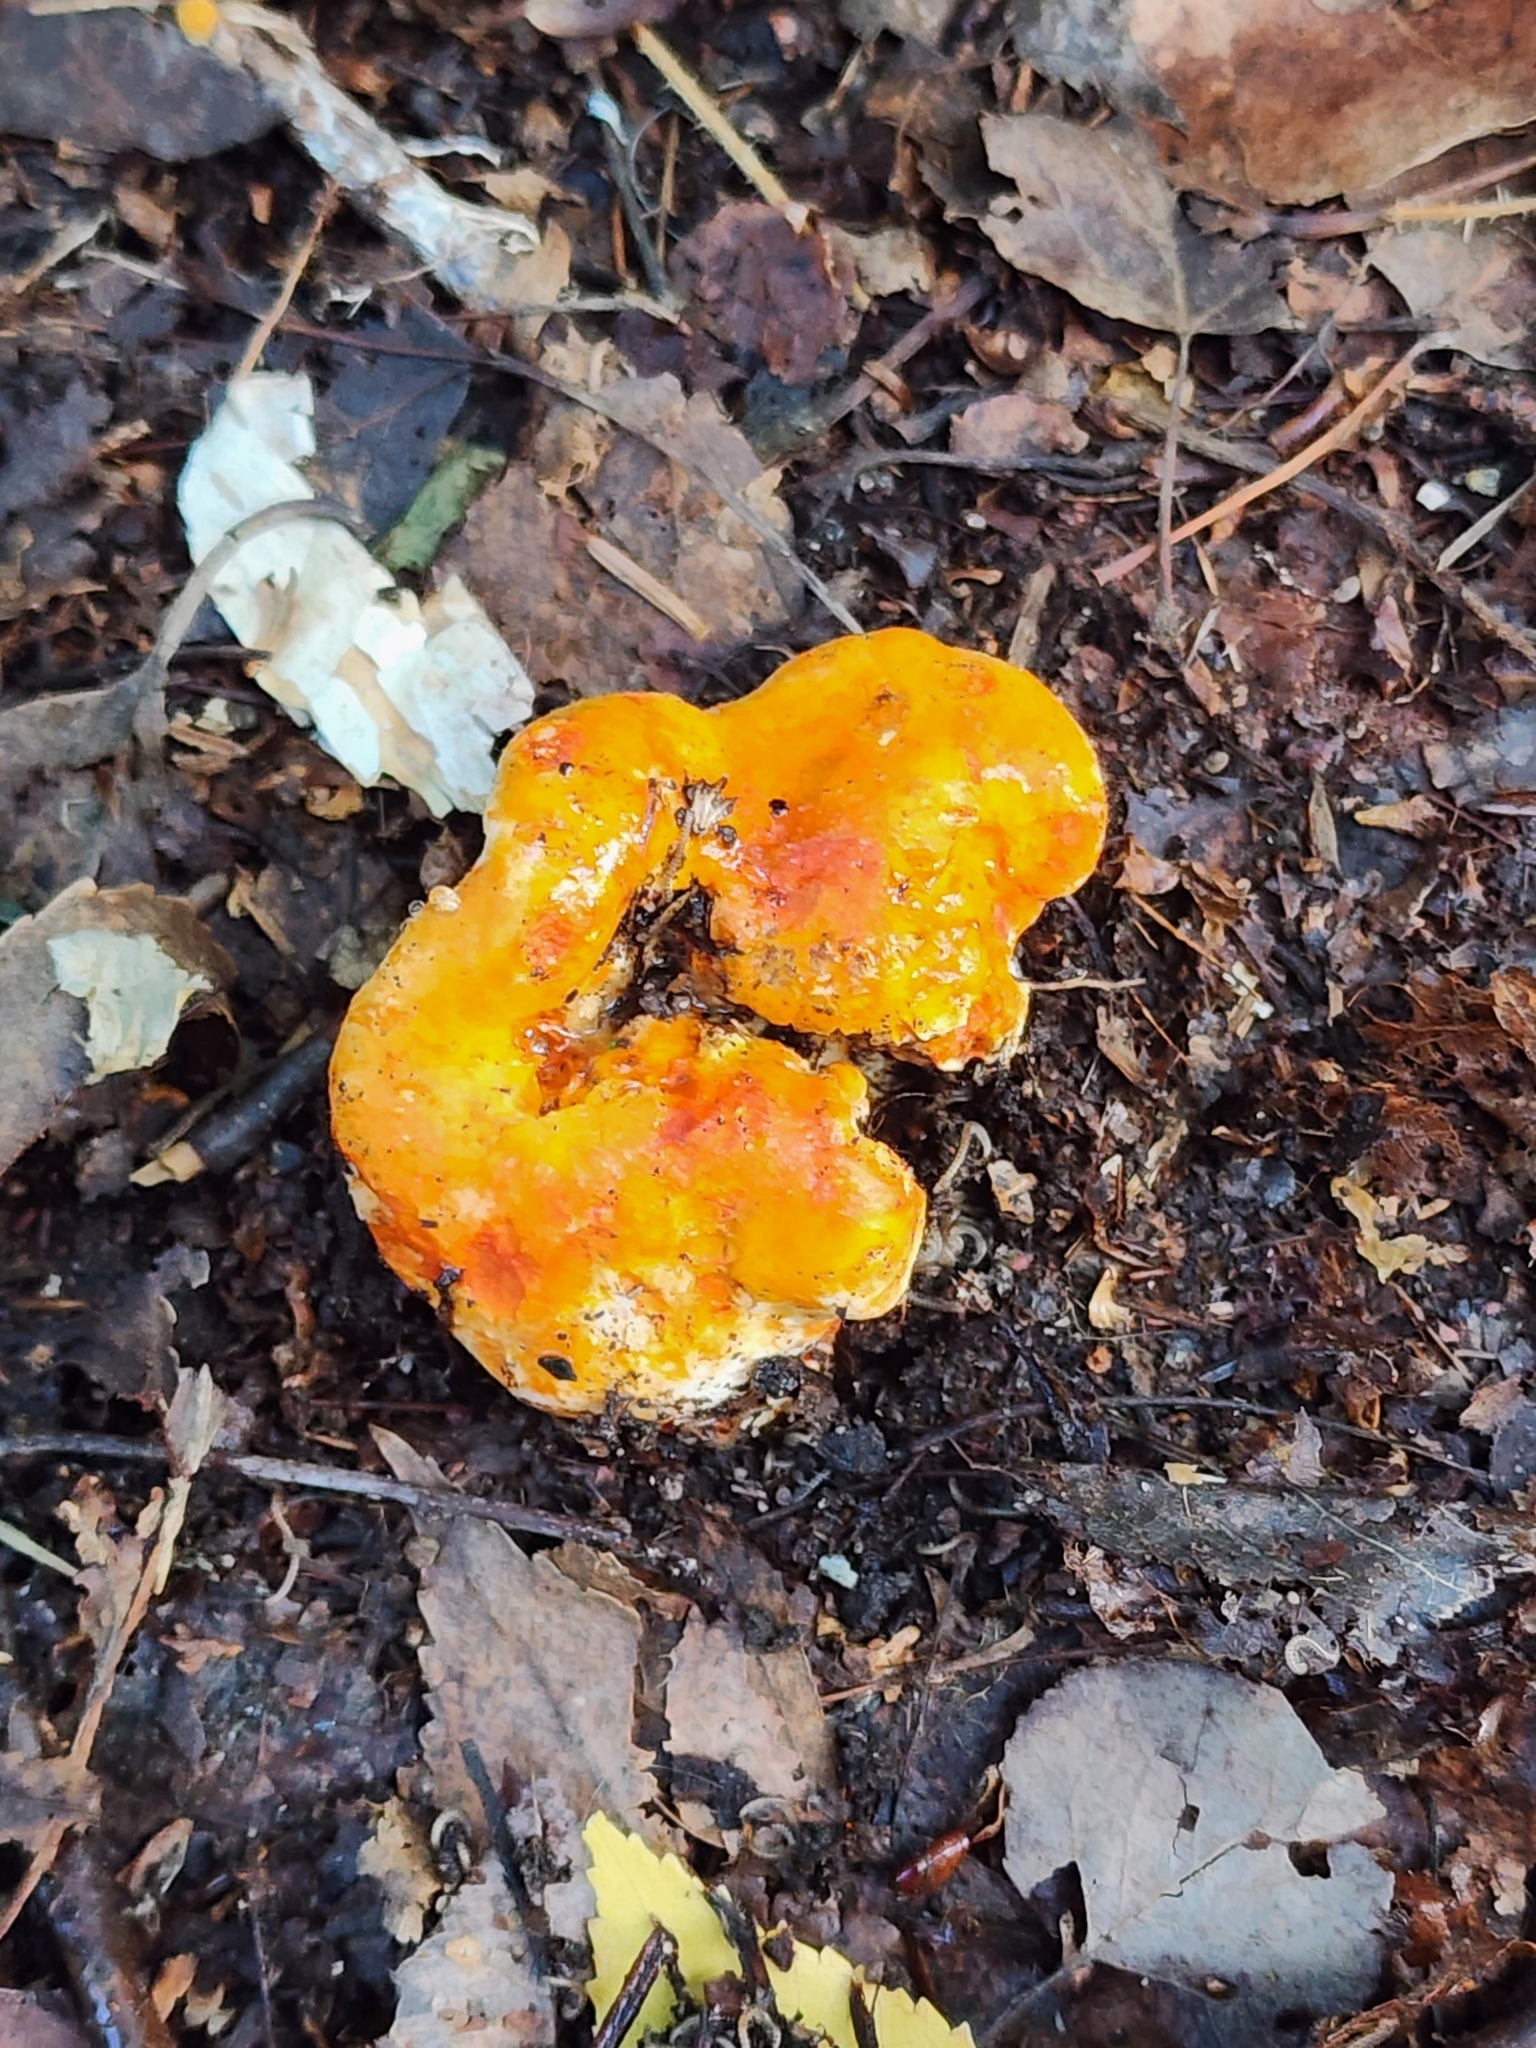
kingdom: Fungi
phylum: Ascomycota
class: Sordariomycetes
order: Hypocreales
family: Hypocreaceae
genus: Hypomyces
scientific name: Hypomyces lactifluorum
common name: Lobster mushroom
